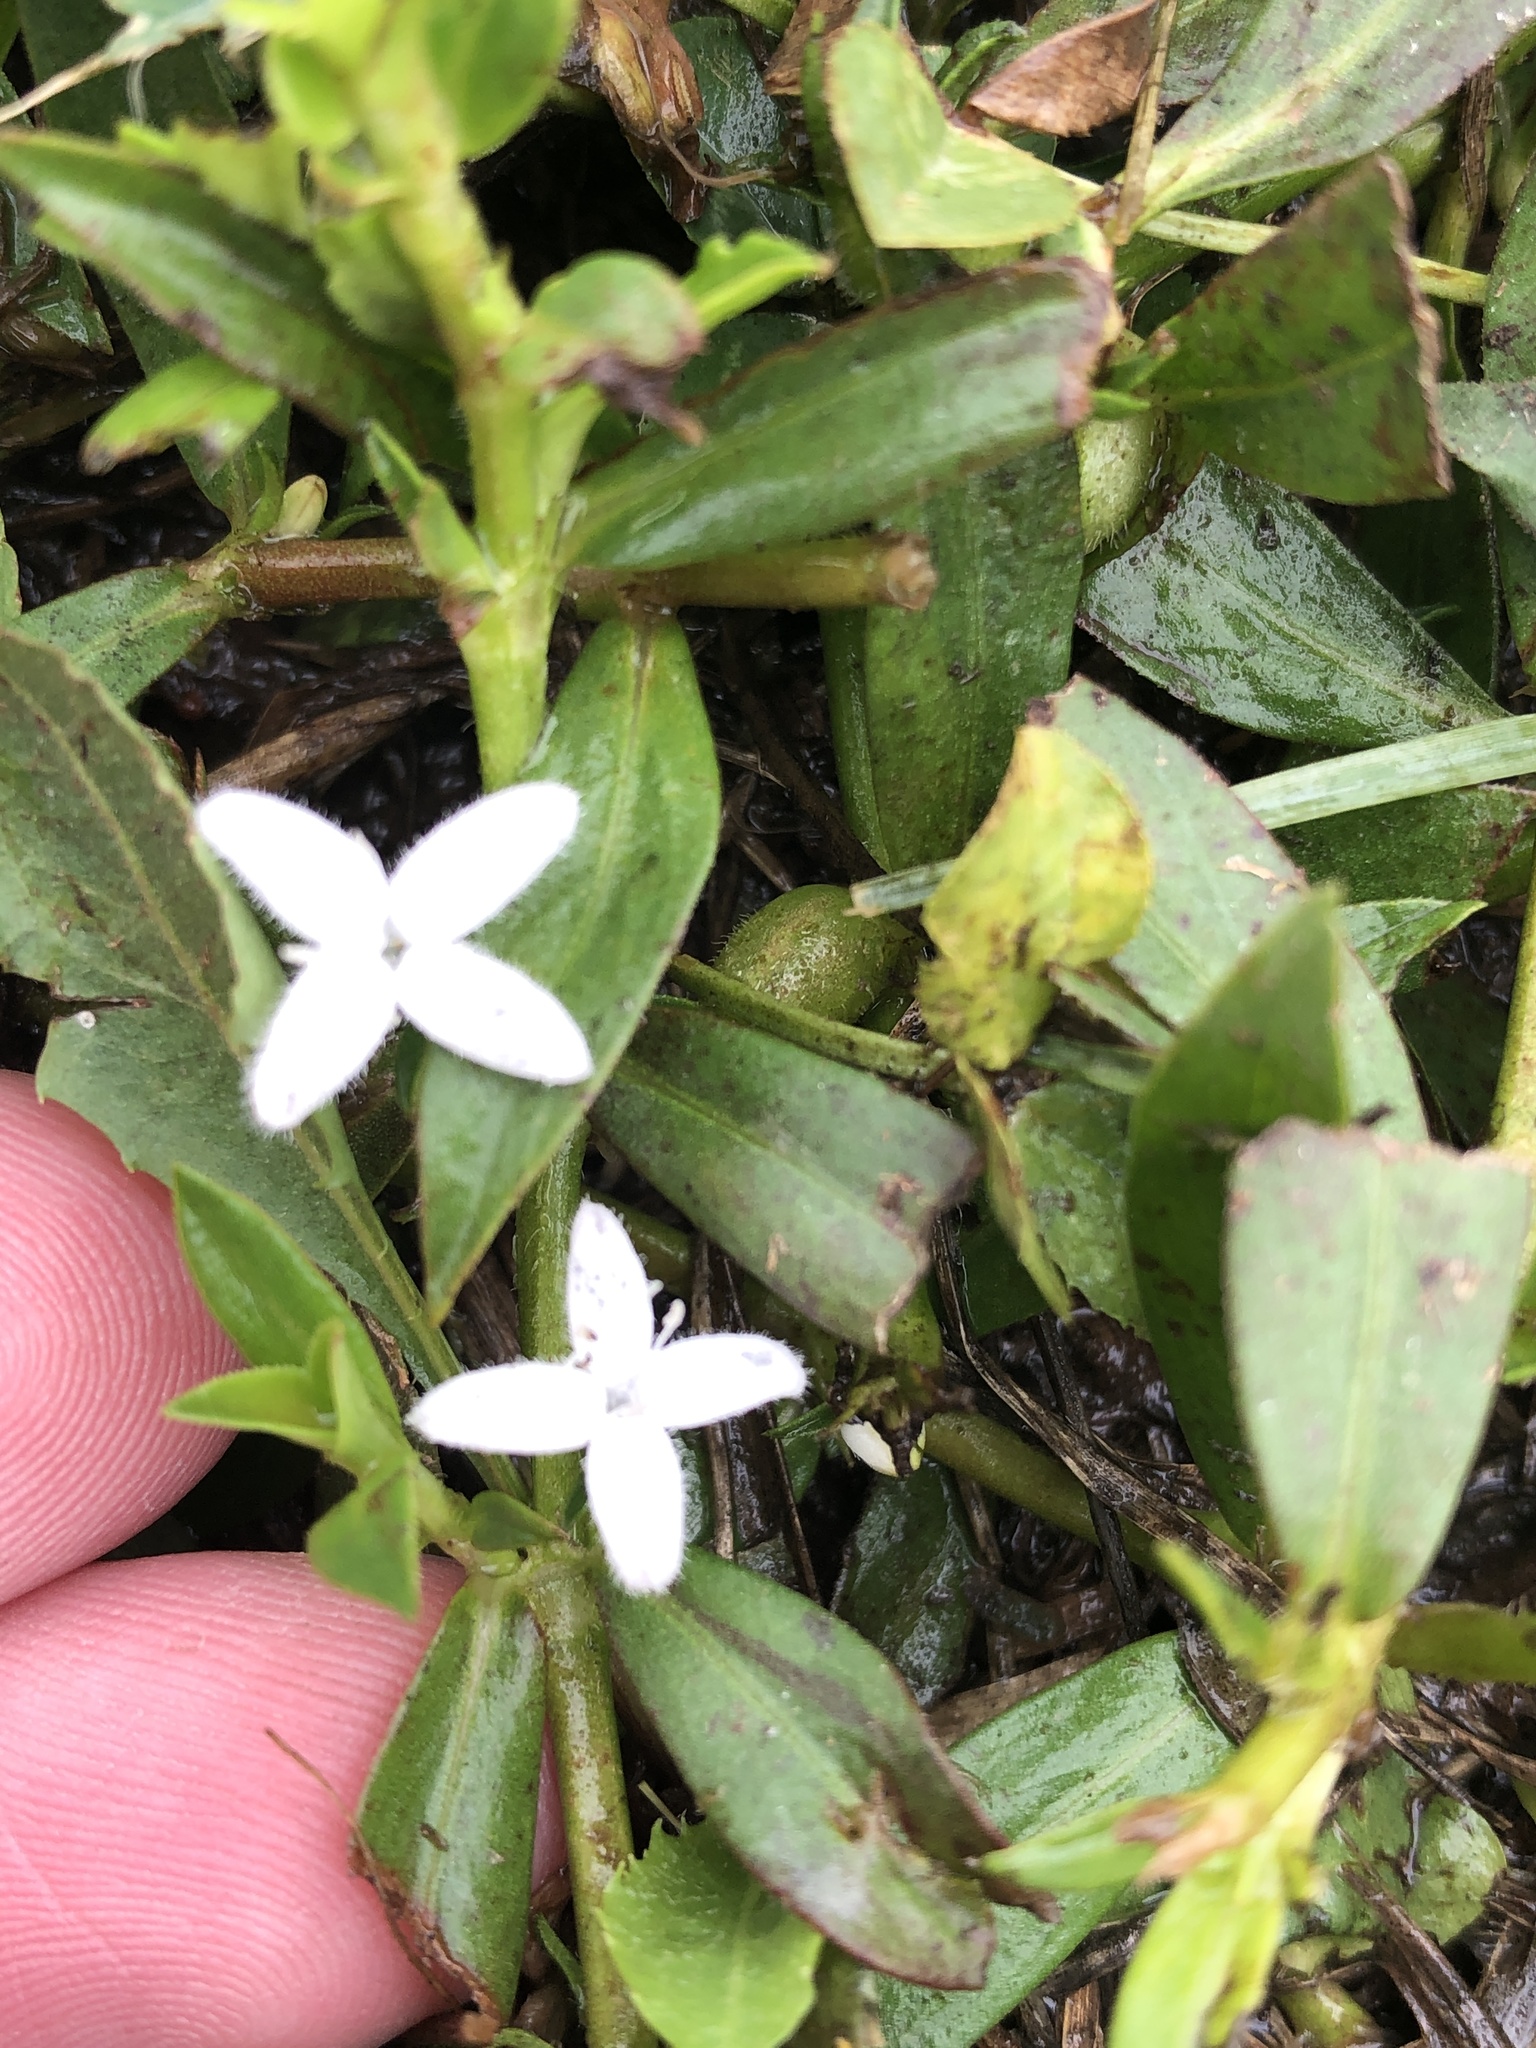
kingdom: Plantae
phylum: Tracheophyta
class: Magnoliopsida
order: Gentianales
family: Rubiaceae
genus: Diodia
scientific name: Diodia virginiana
